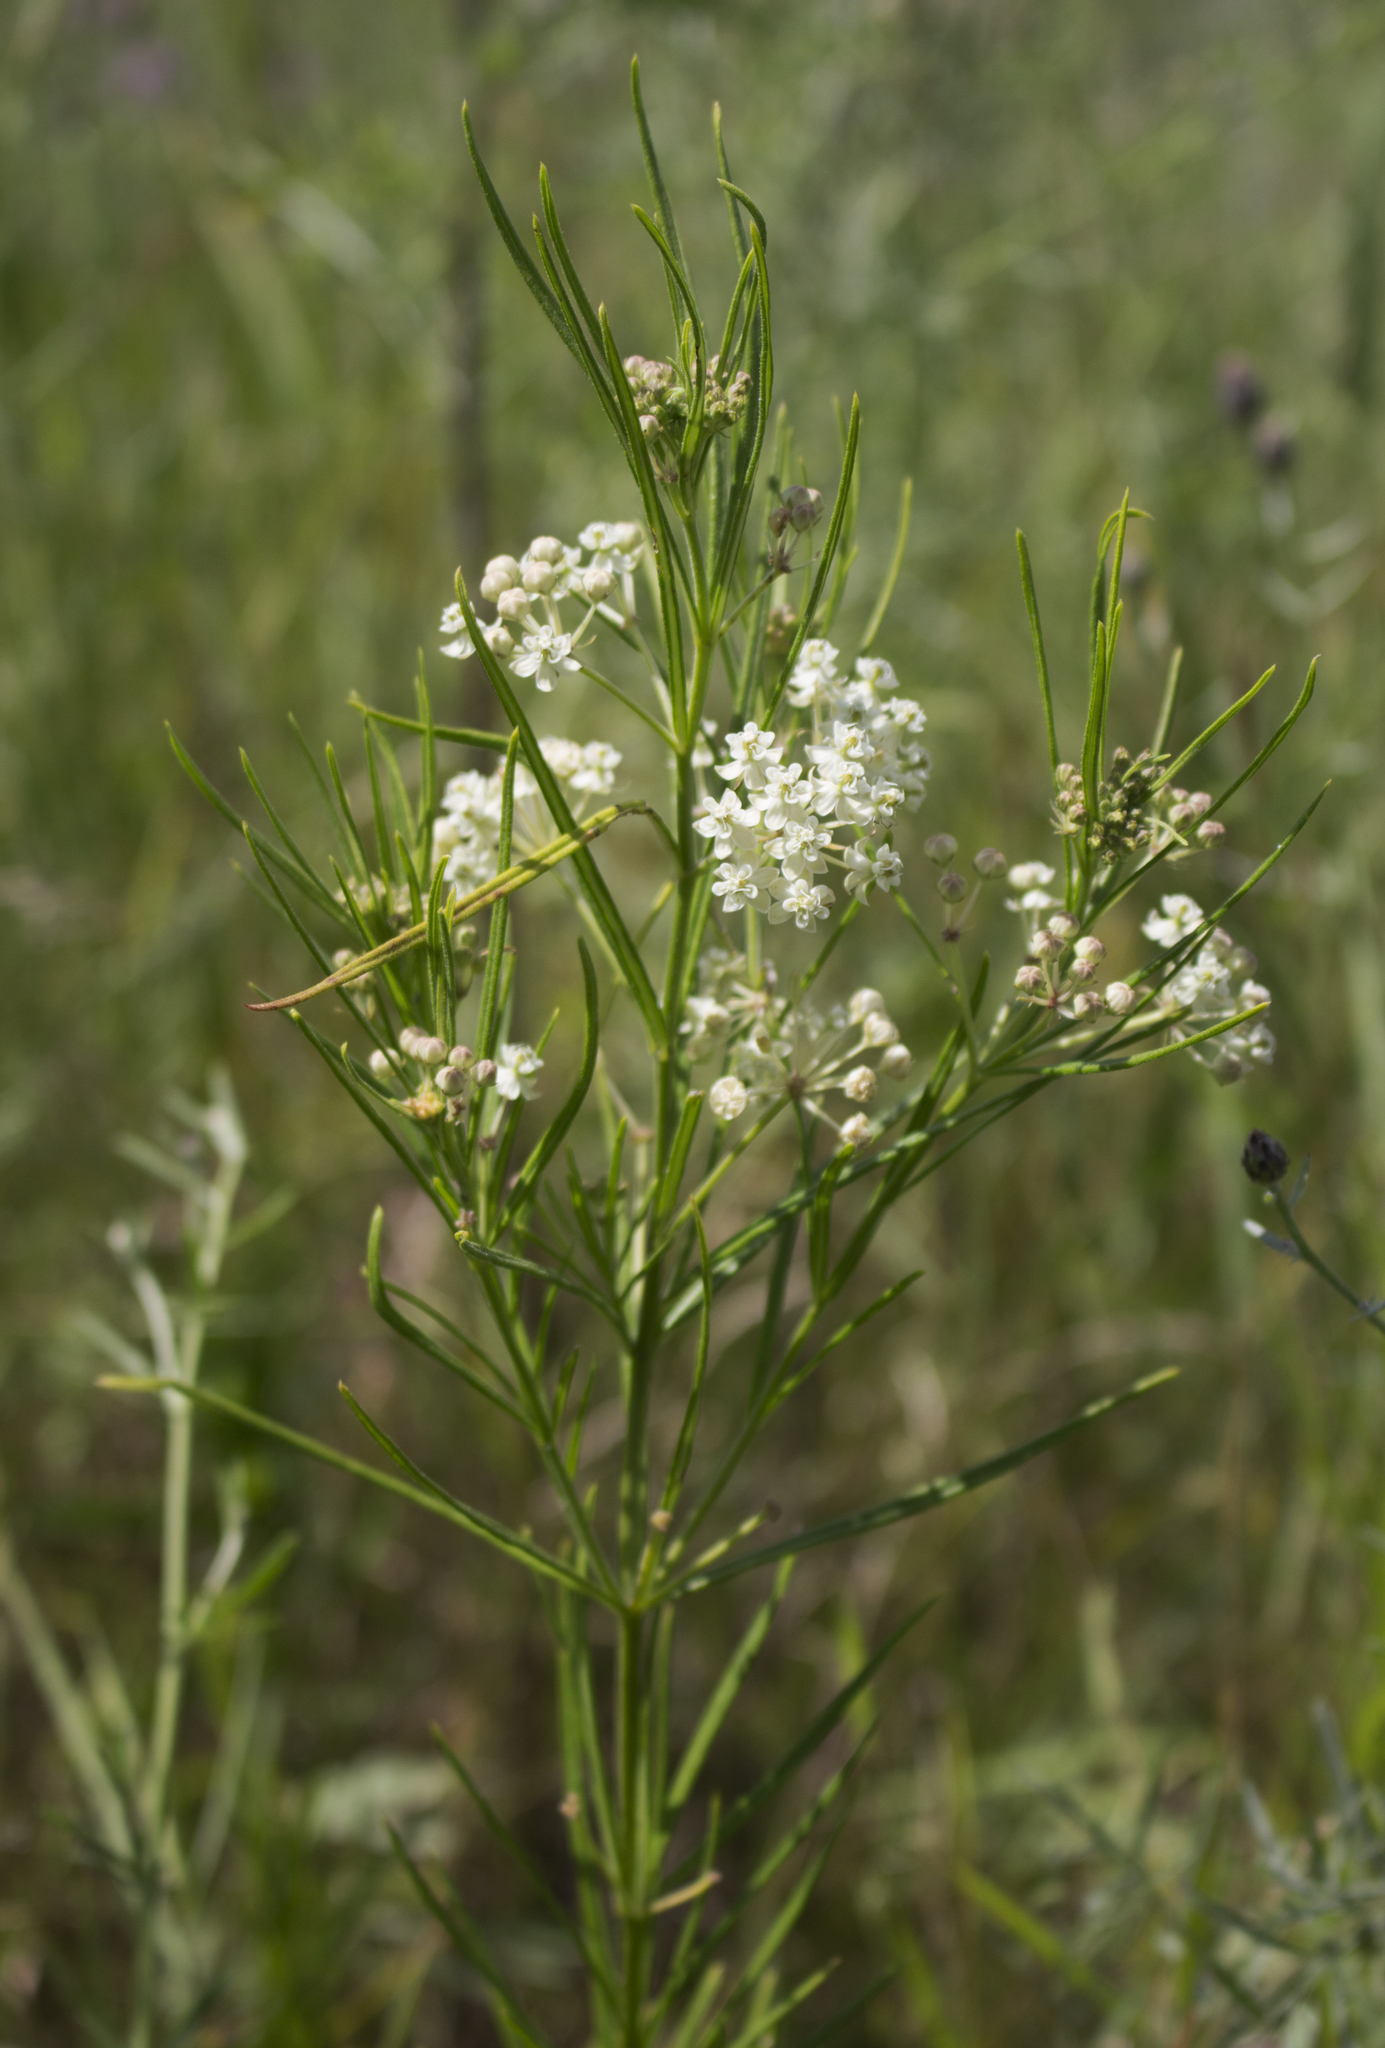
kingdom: Plantae
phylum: Tracheophyta
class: Magnoliopsida
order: Gentianales
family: Apocynaceae
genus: Asclepias
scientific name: Asclepias verticillata
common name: Eastern whorled milkweed
